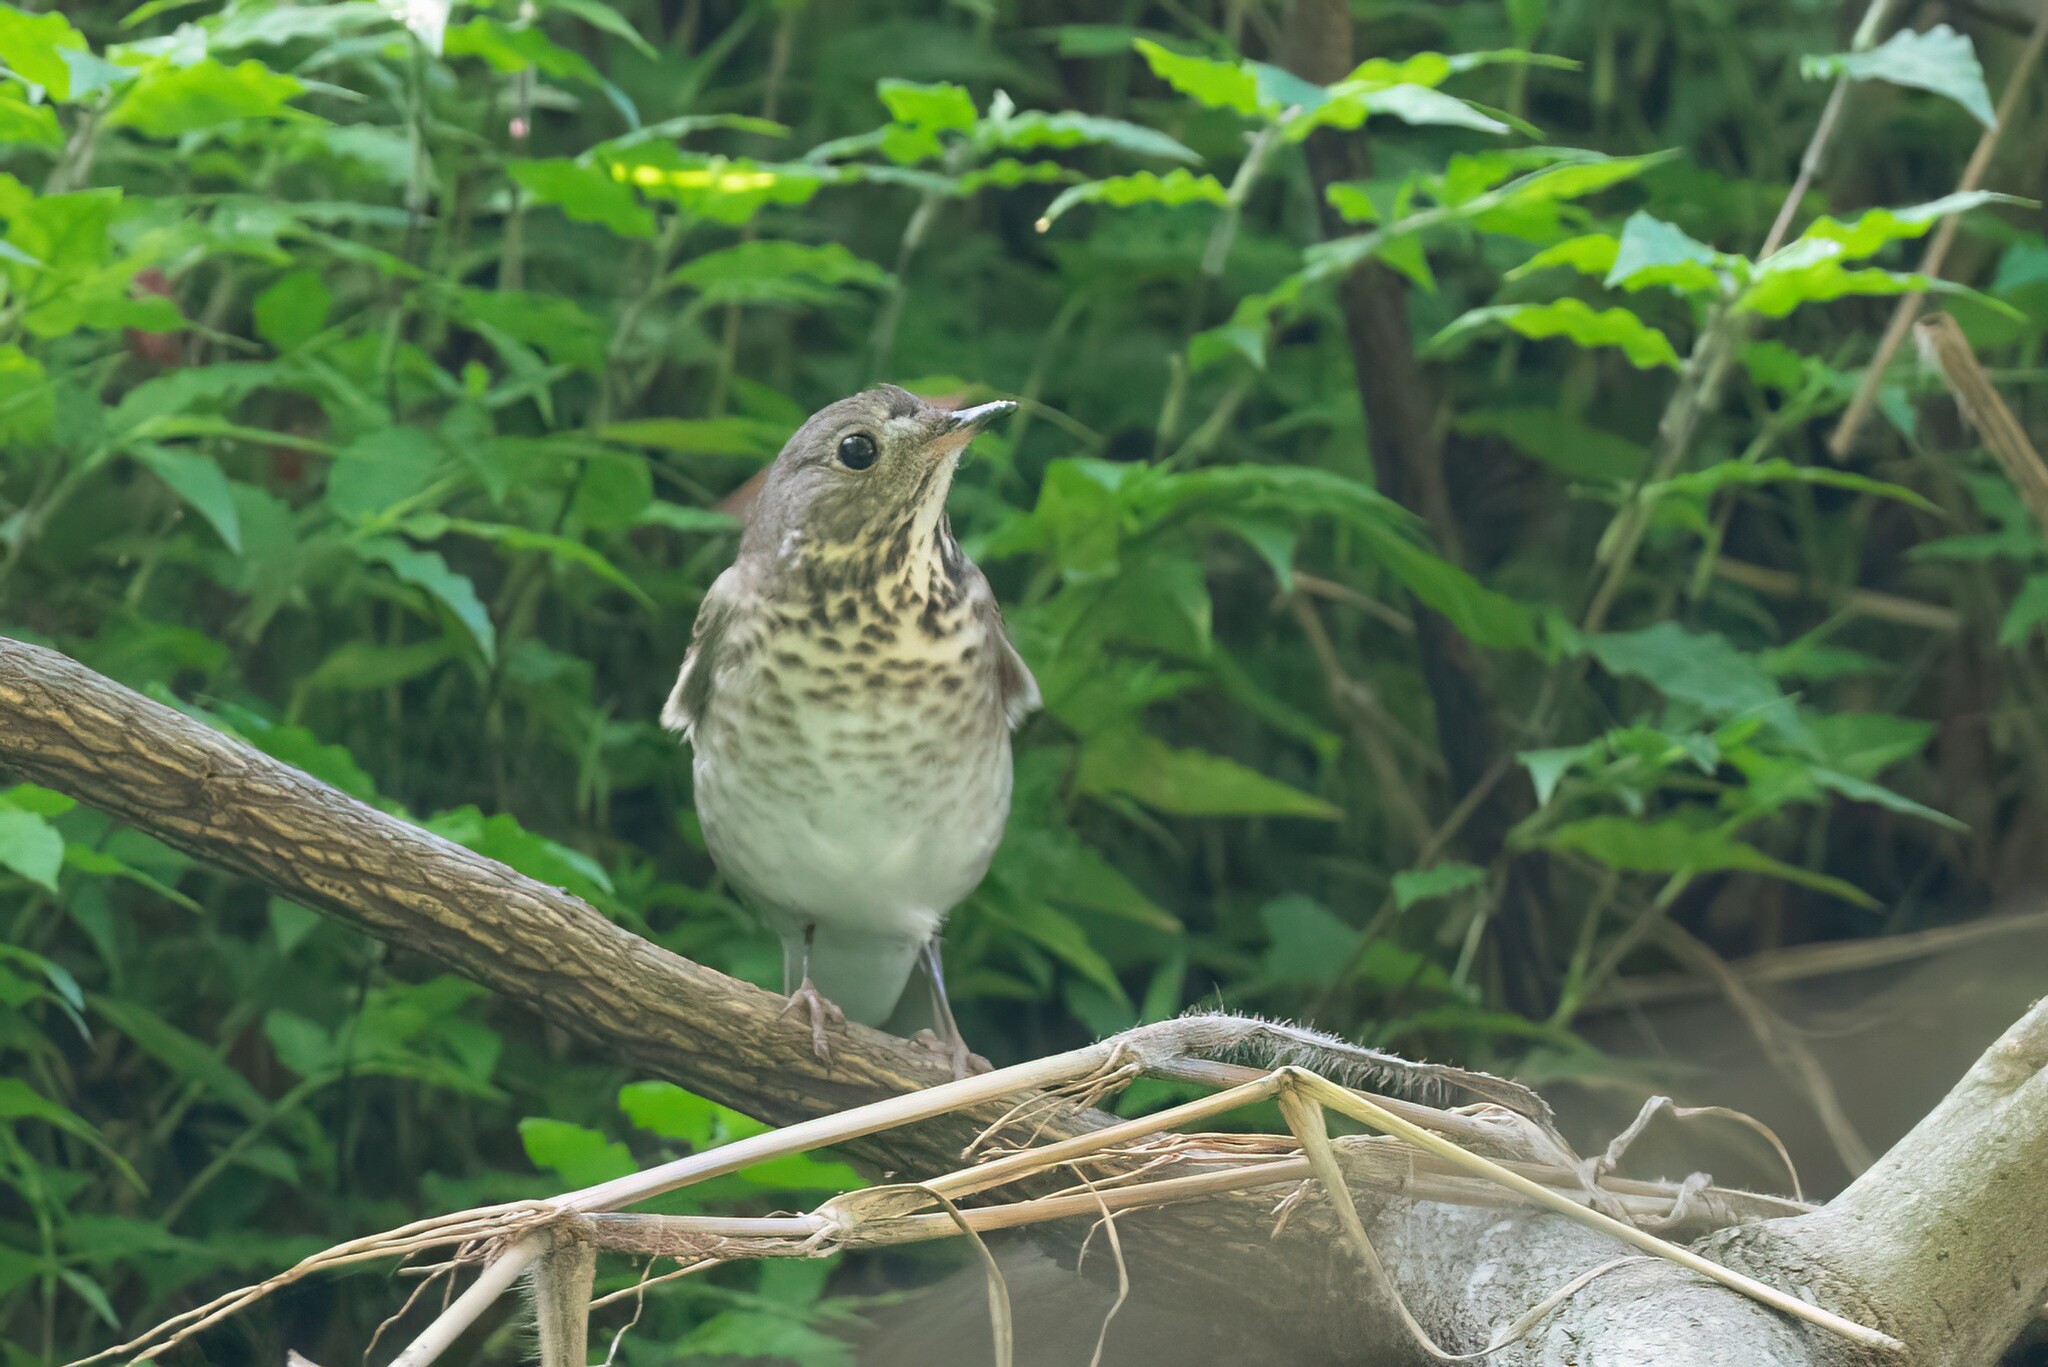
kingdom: Animalia
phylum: Chordata
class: Aves
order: Passeriformes
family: Turdidae
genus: Catharus
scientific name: Catharus minimus
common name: Grey-cheeked thrush
